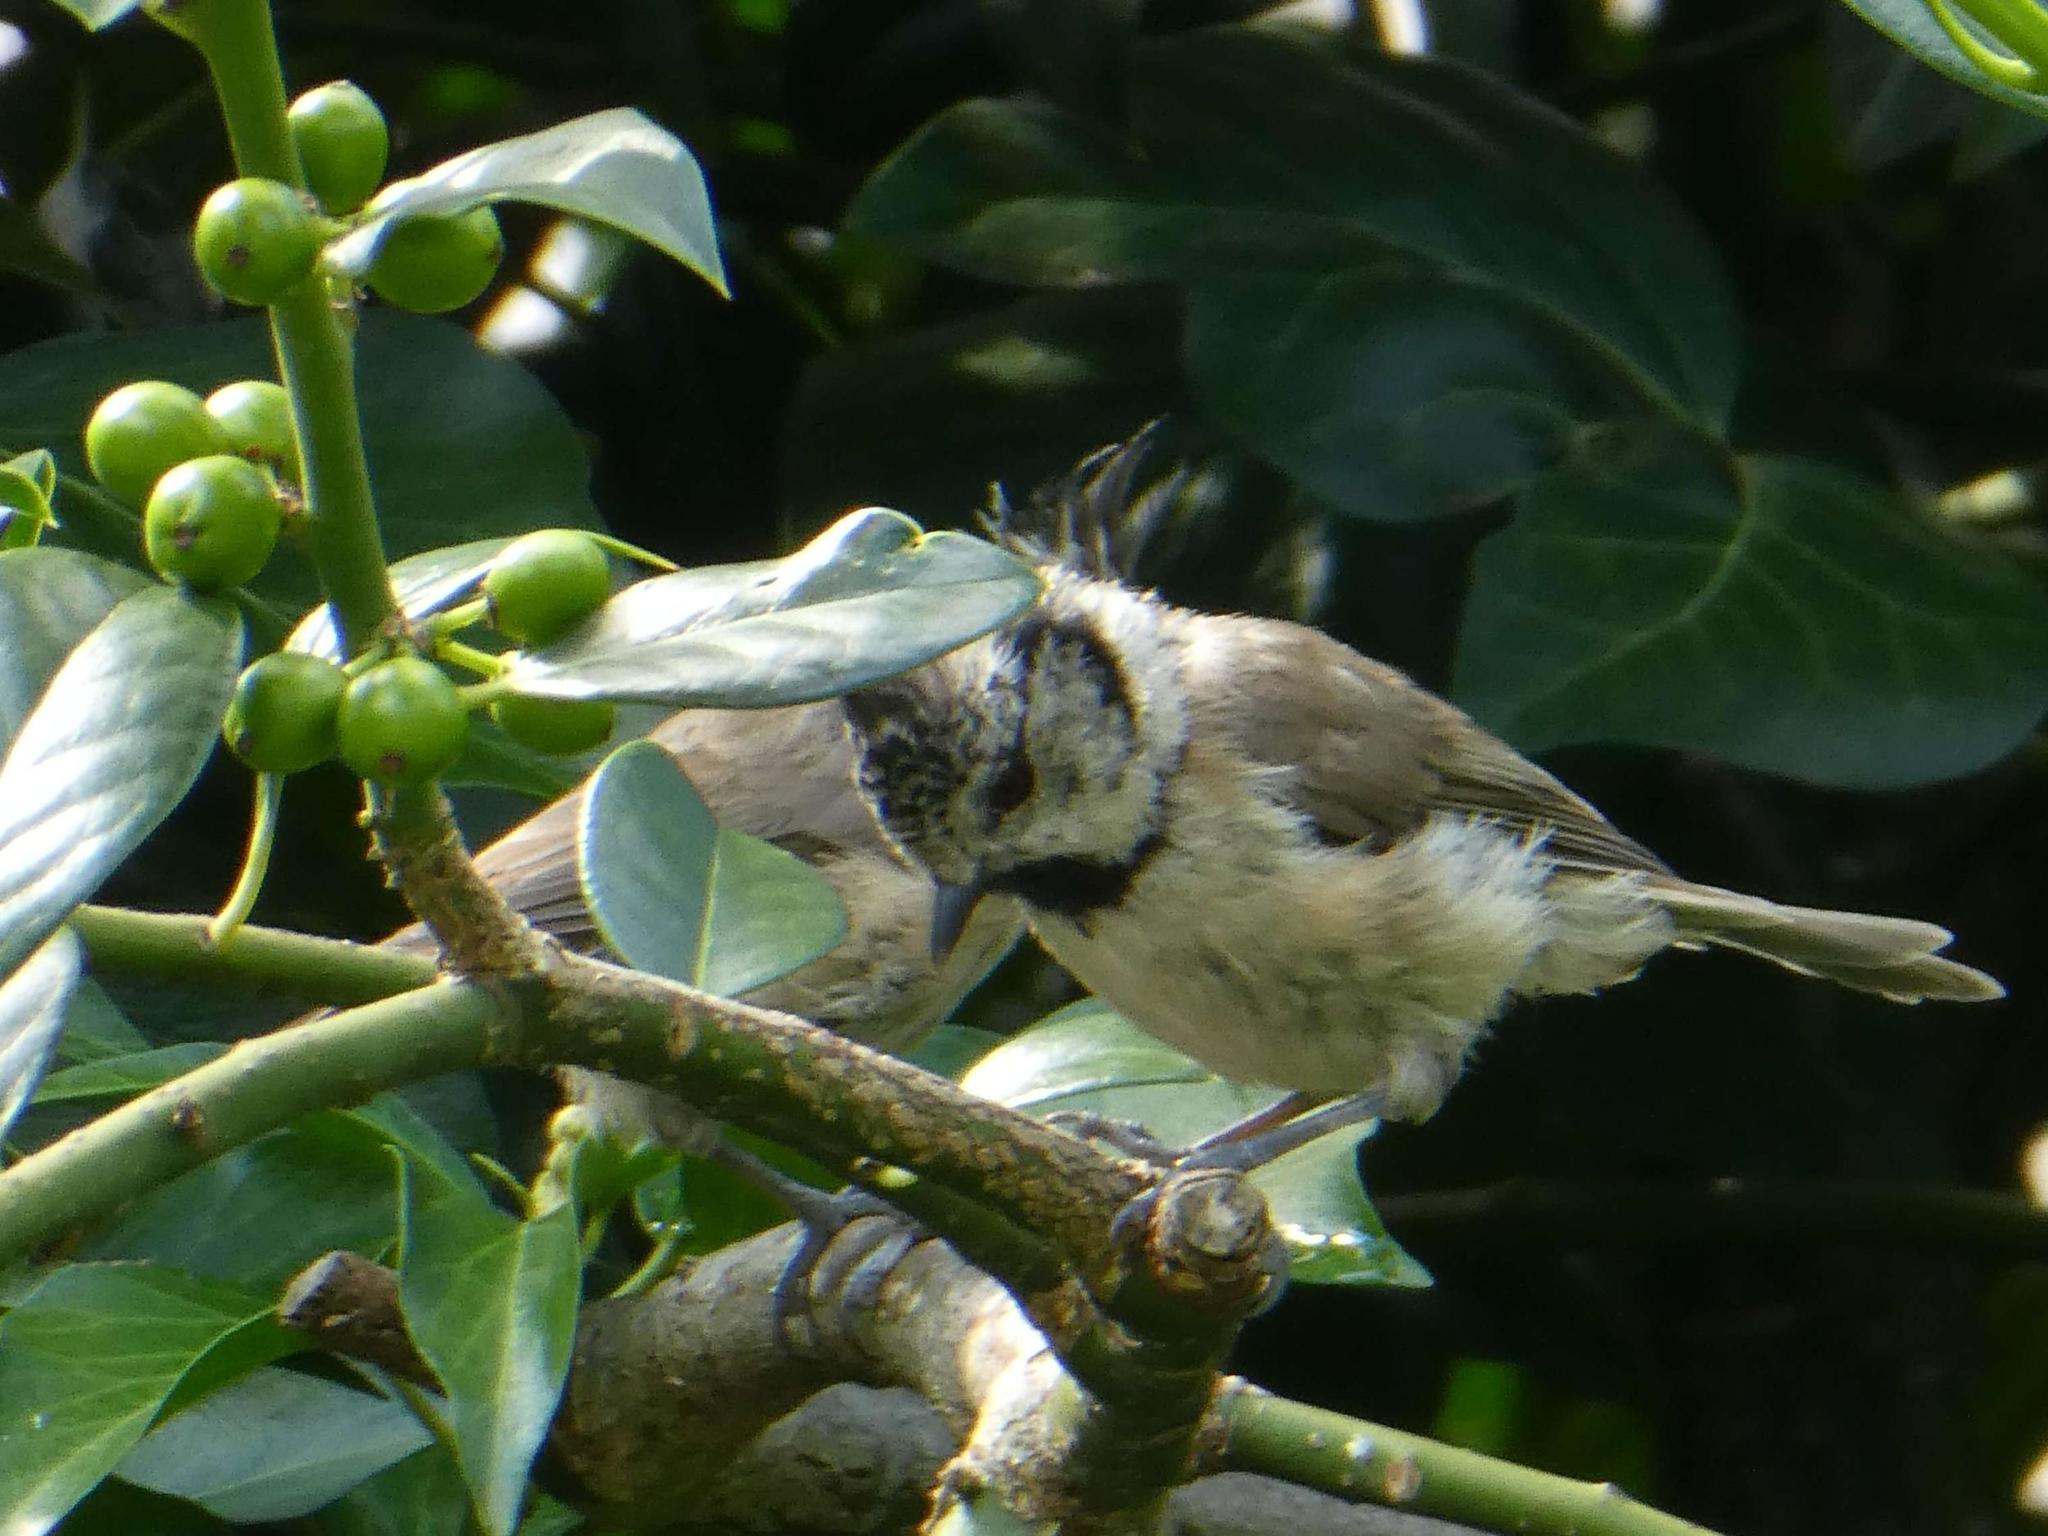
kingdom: Animalia
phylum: Chordata
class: Aves
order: Passeriformes
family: Paridae
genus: Lophophanes
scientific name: Lophophanes cristatus
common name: European crested tit
